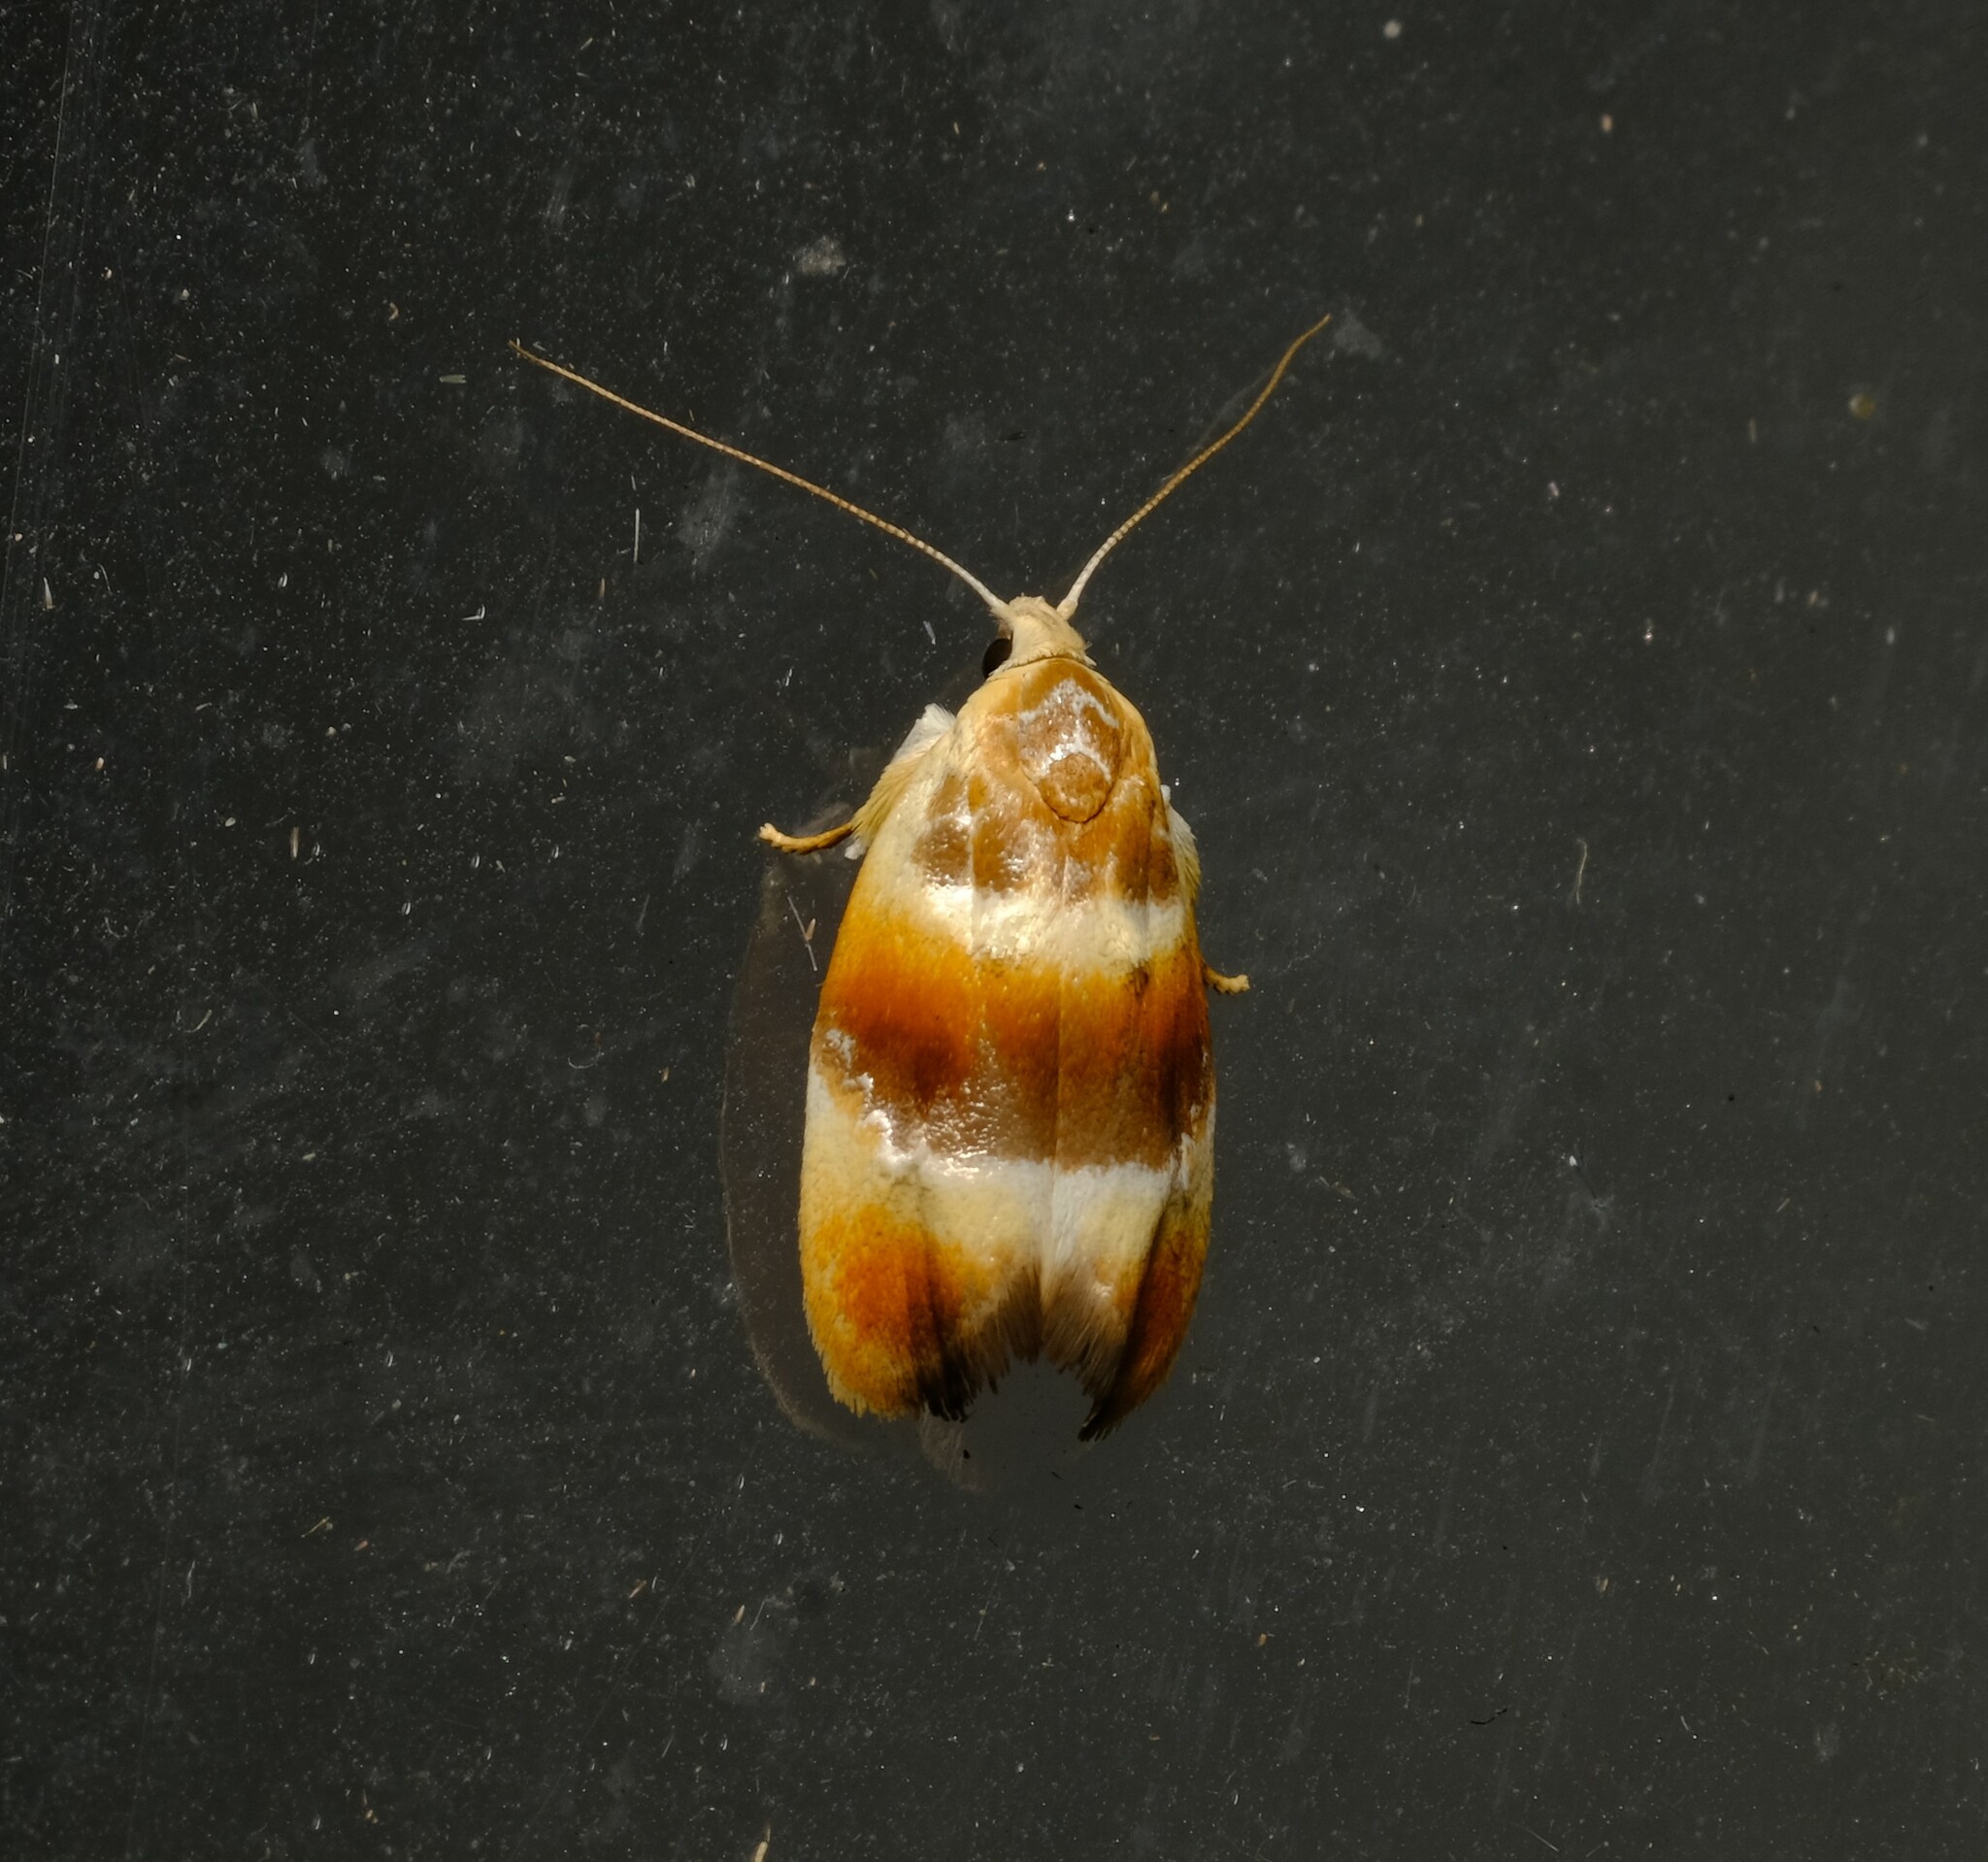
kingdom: Animalia
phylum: Arthropoda
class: Insecta
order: Lepidoptera
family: Oecophoridae
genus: Piloprepes
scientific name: Piloprepes anassa
